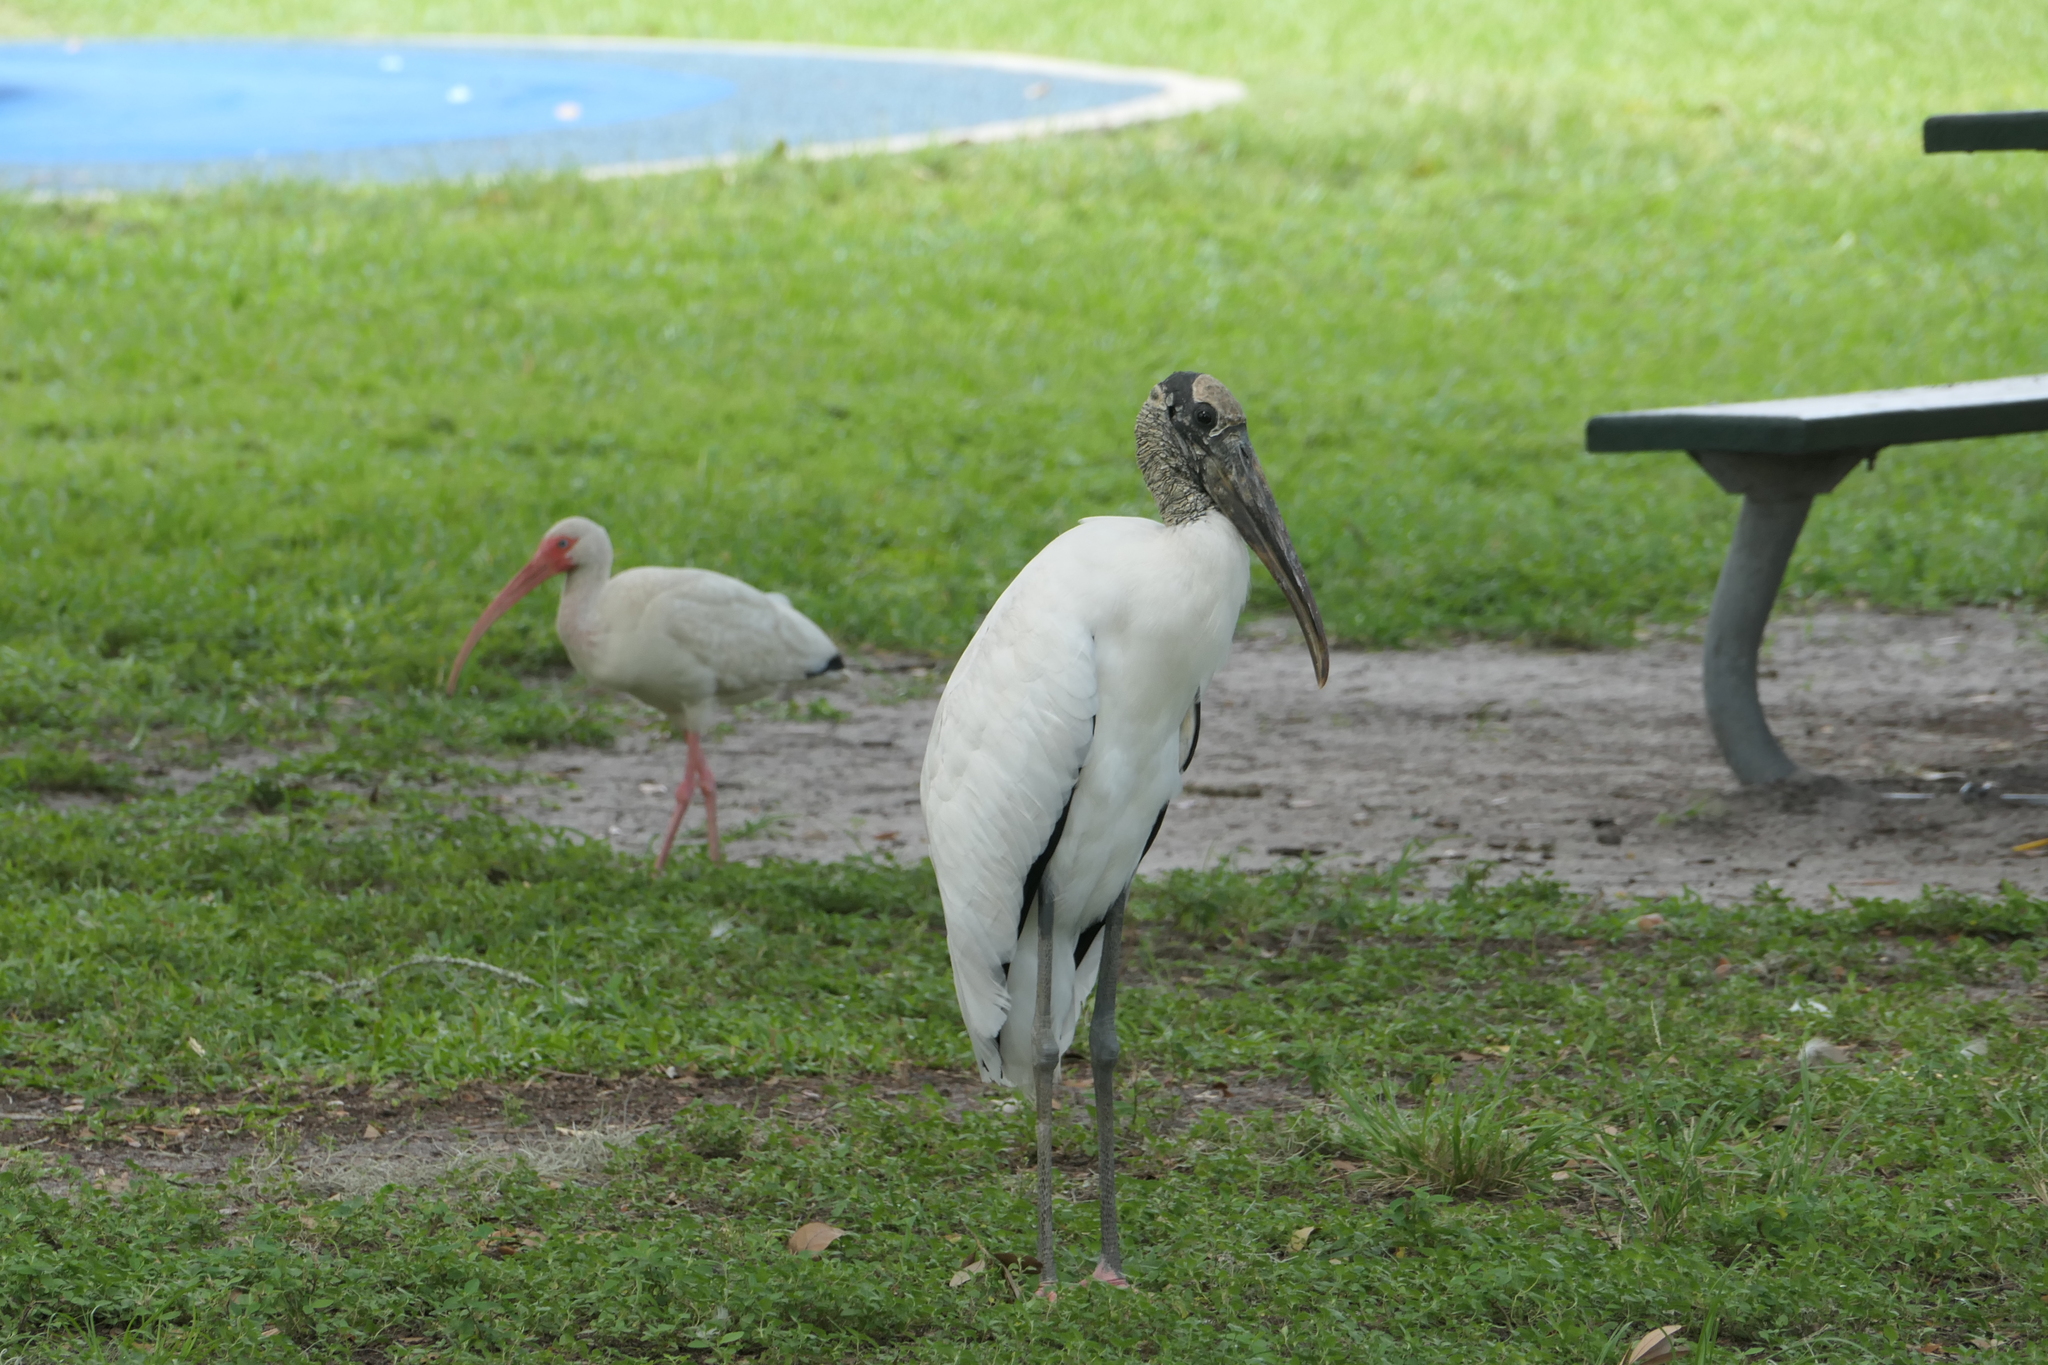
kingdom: Animalia
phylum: Chordata
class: Aves
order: Ciconiiformes
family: Ciconiidae
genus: Mycteria
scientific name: Mycteria americana
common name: Wood stork
